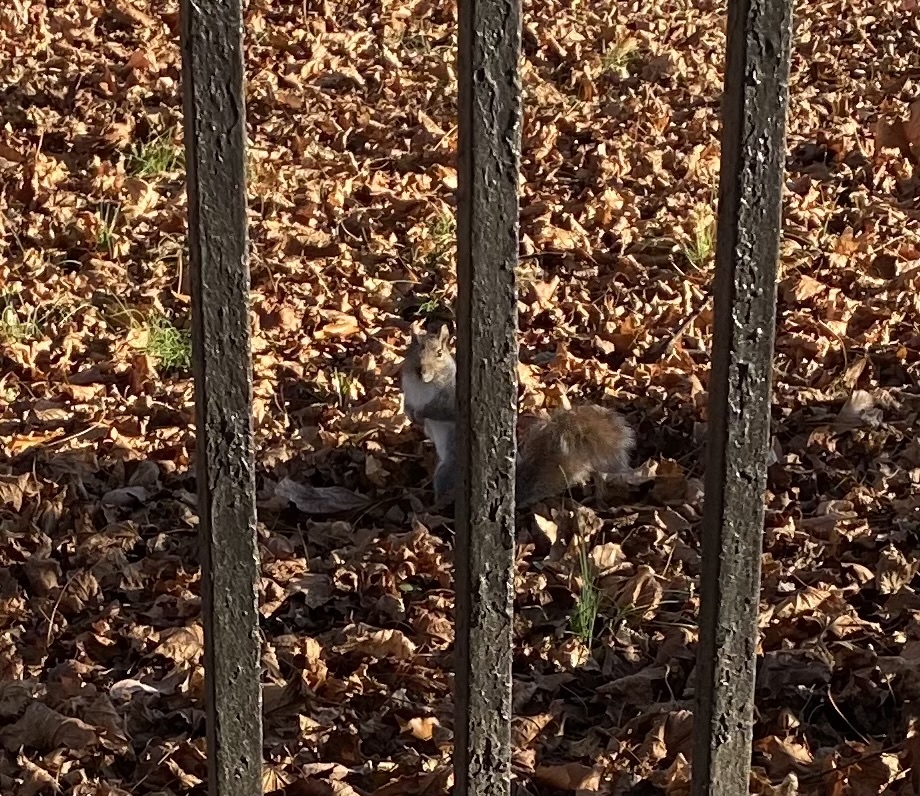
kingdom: Animalia
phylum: Chordata
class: Mammalia
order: Rodentia
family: Sciuridae
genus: Sciurus
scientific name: Sciurus carolinensis
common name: Eastern gray squirrel
